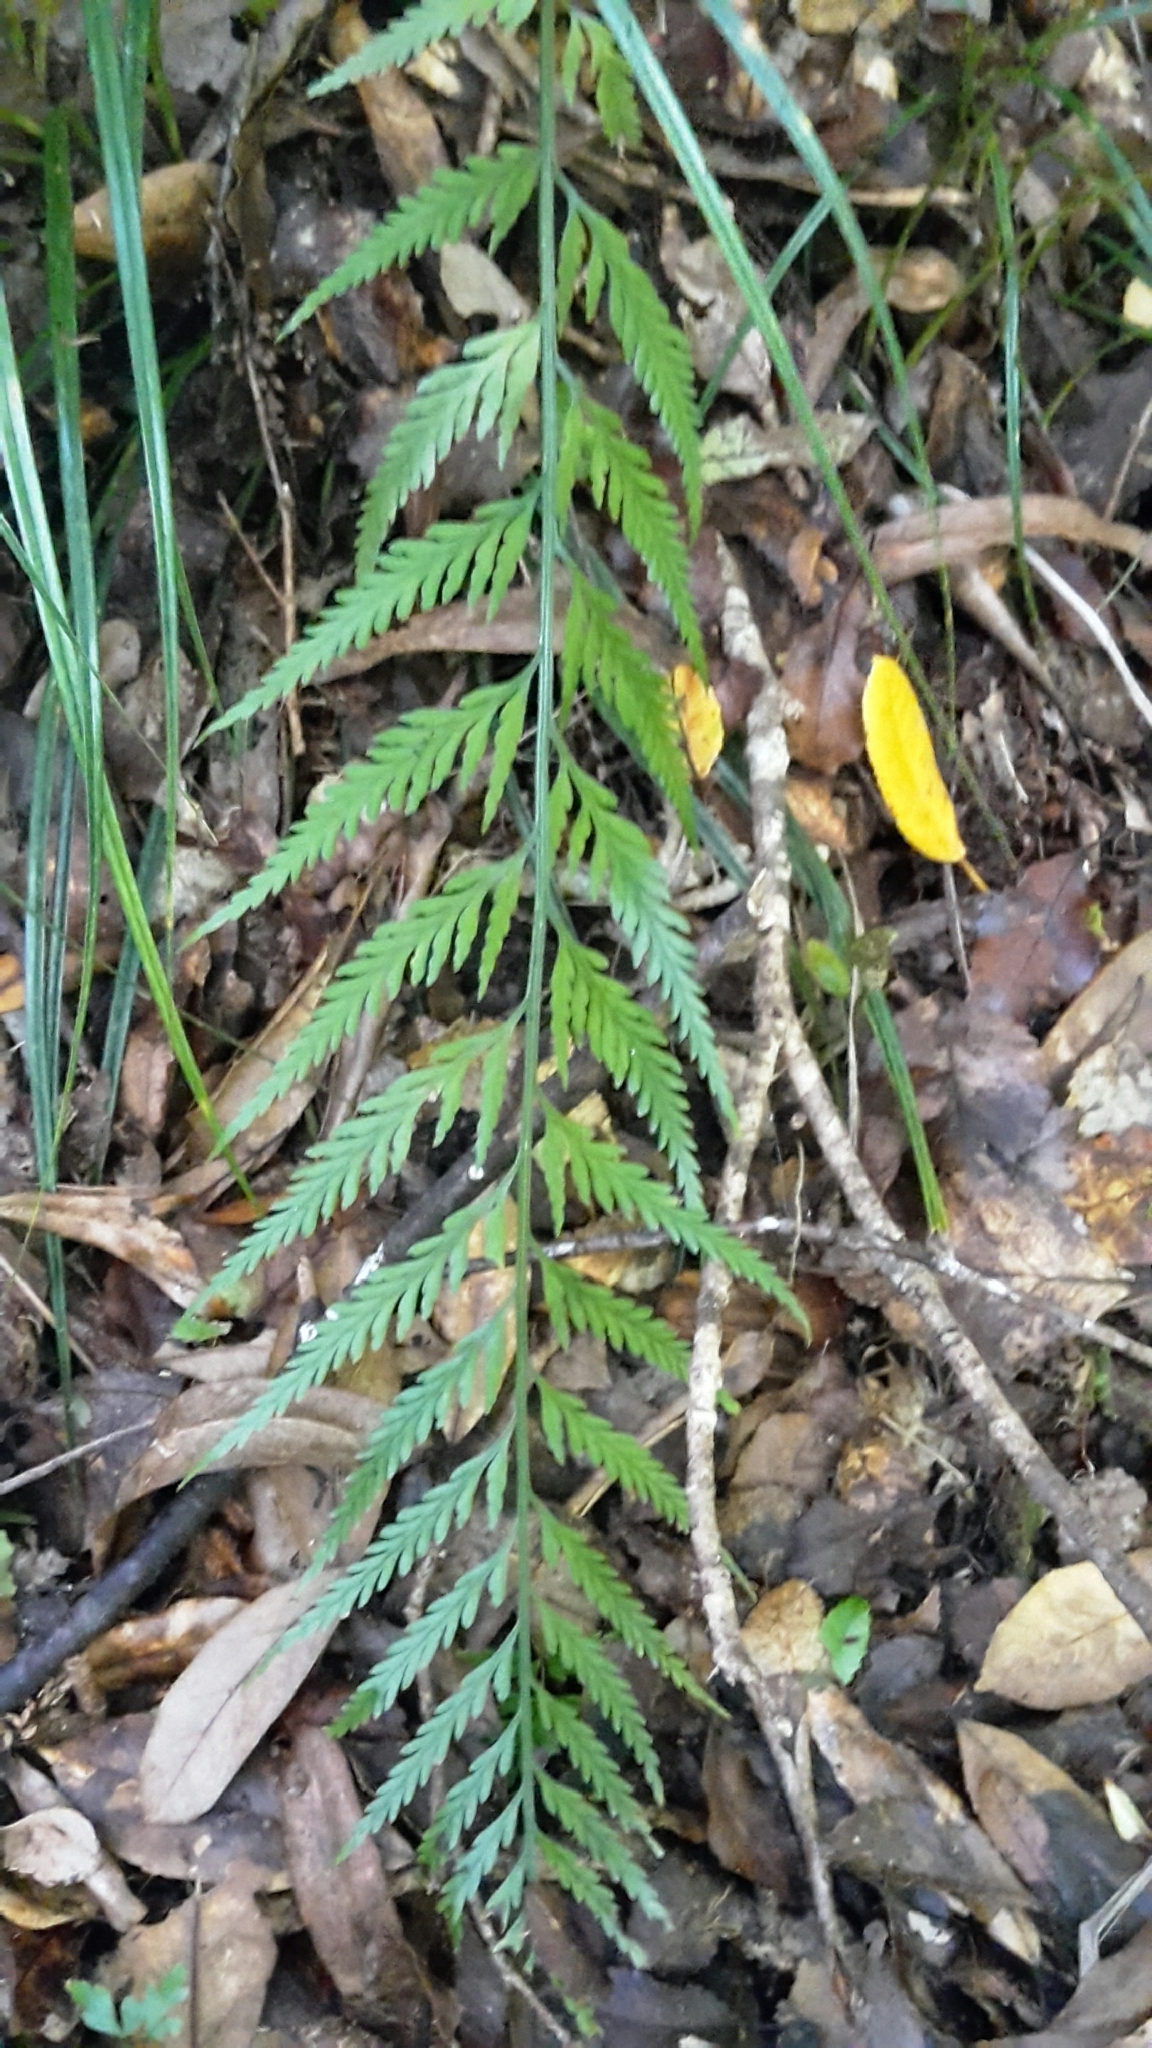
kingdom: Plantae
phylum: Tracheophyta
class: Polypodiopsida
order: Polypodiales
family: Aspleniaceae
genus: Asplenium
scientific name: Asplenium flaccidum
